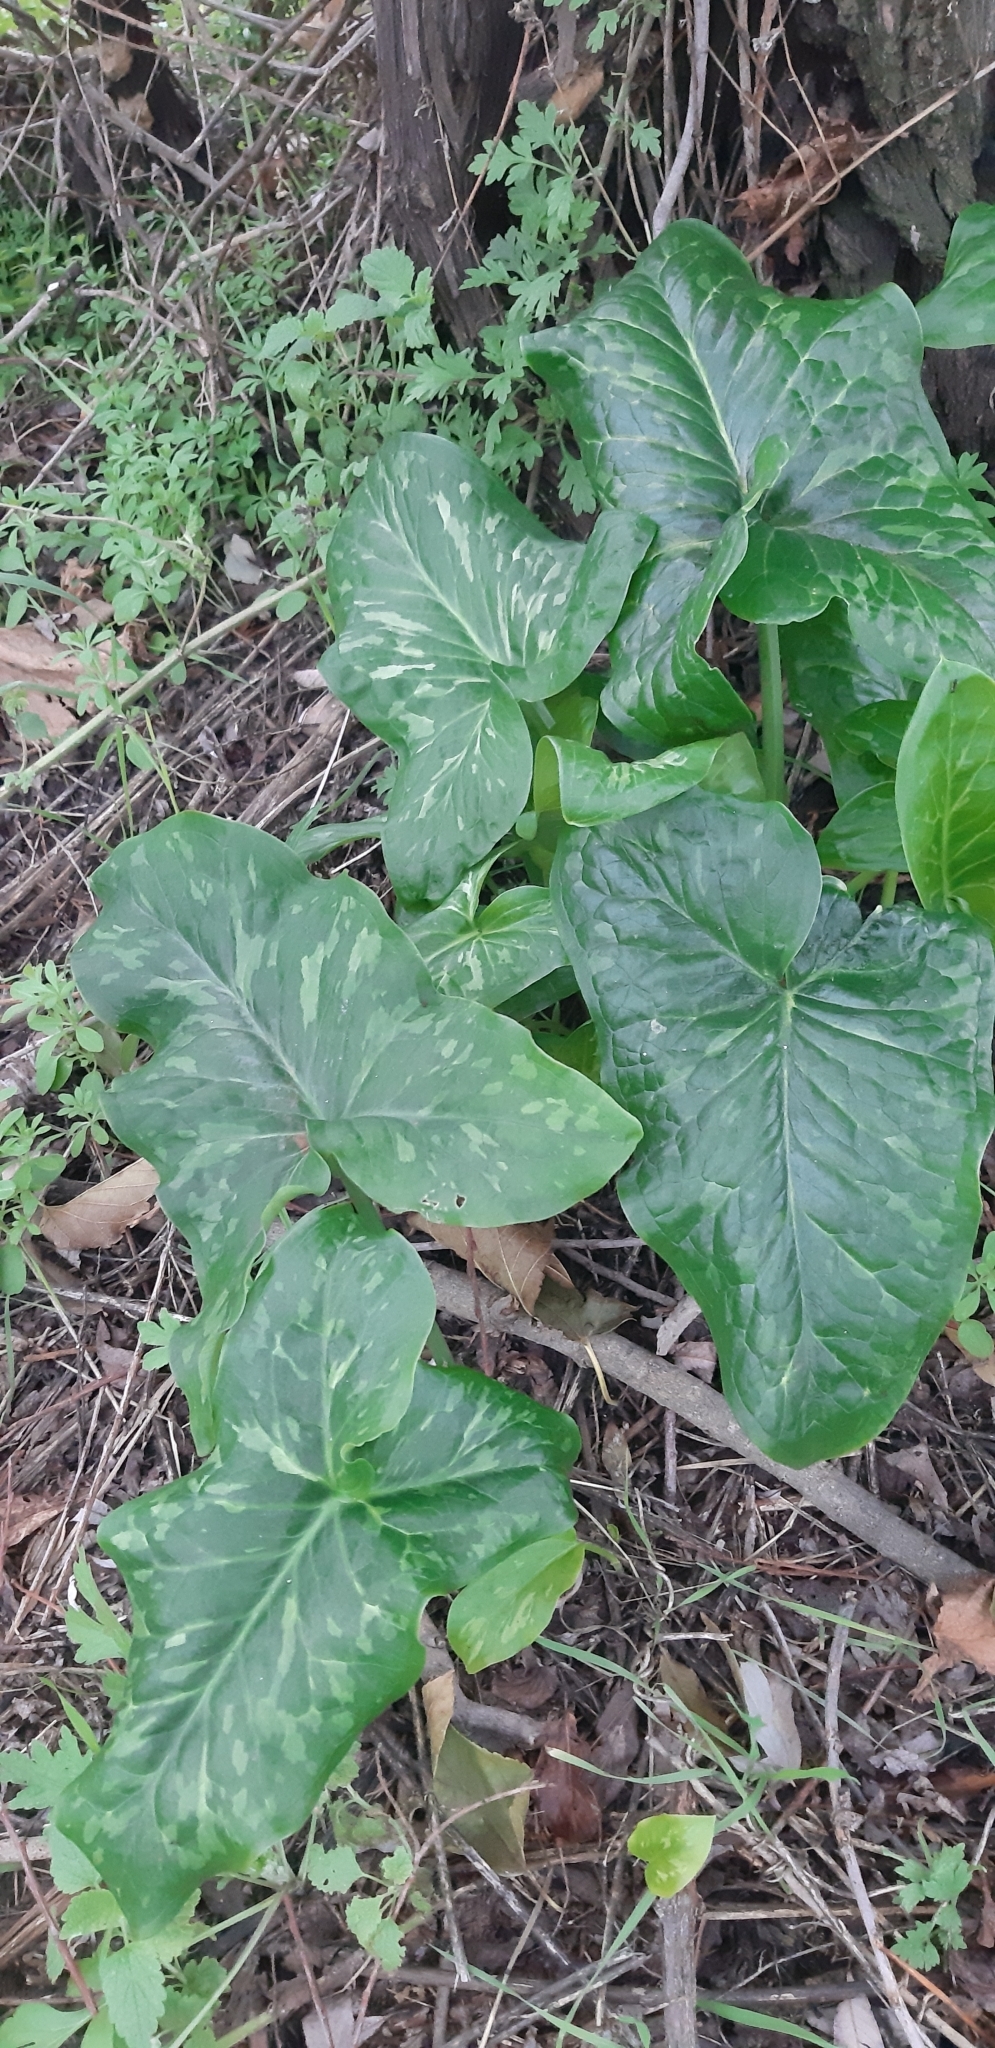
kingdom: Plantae
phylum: Tracheophyta
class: Liliopsida
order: Alismatales
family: Araceae
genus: Arum
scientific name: Arum italicum
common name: Italian lords-and-ladies
